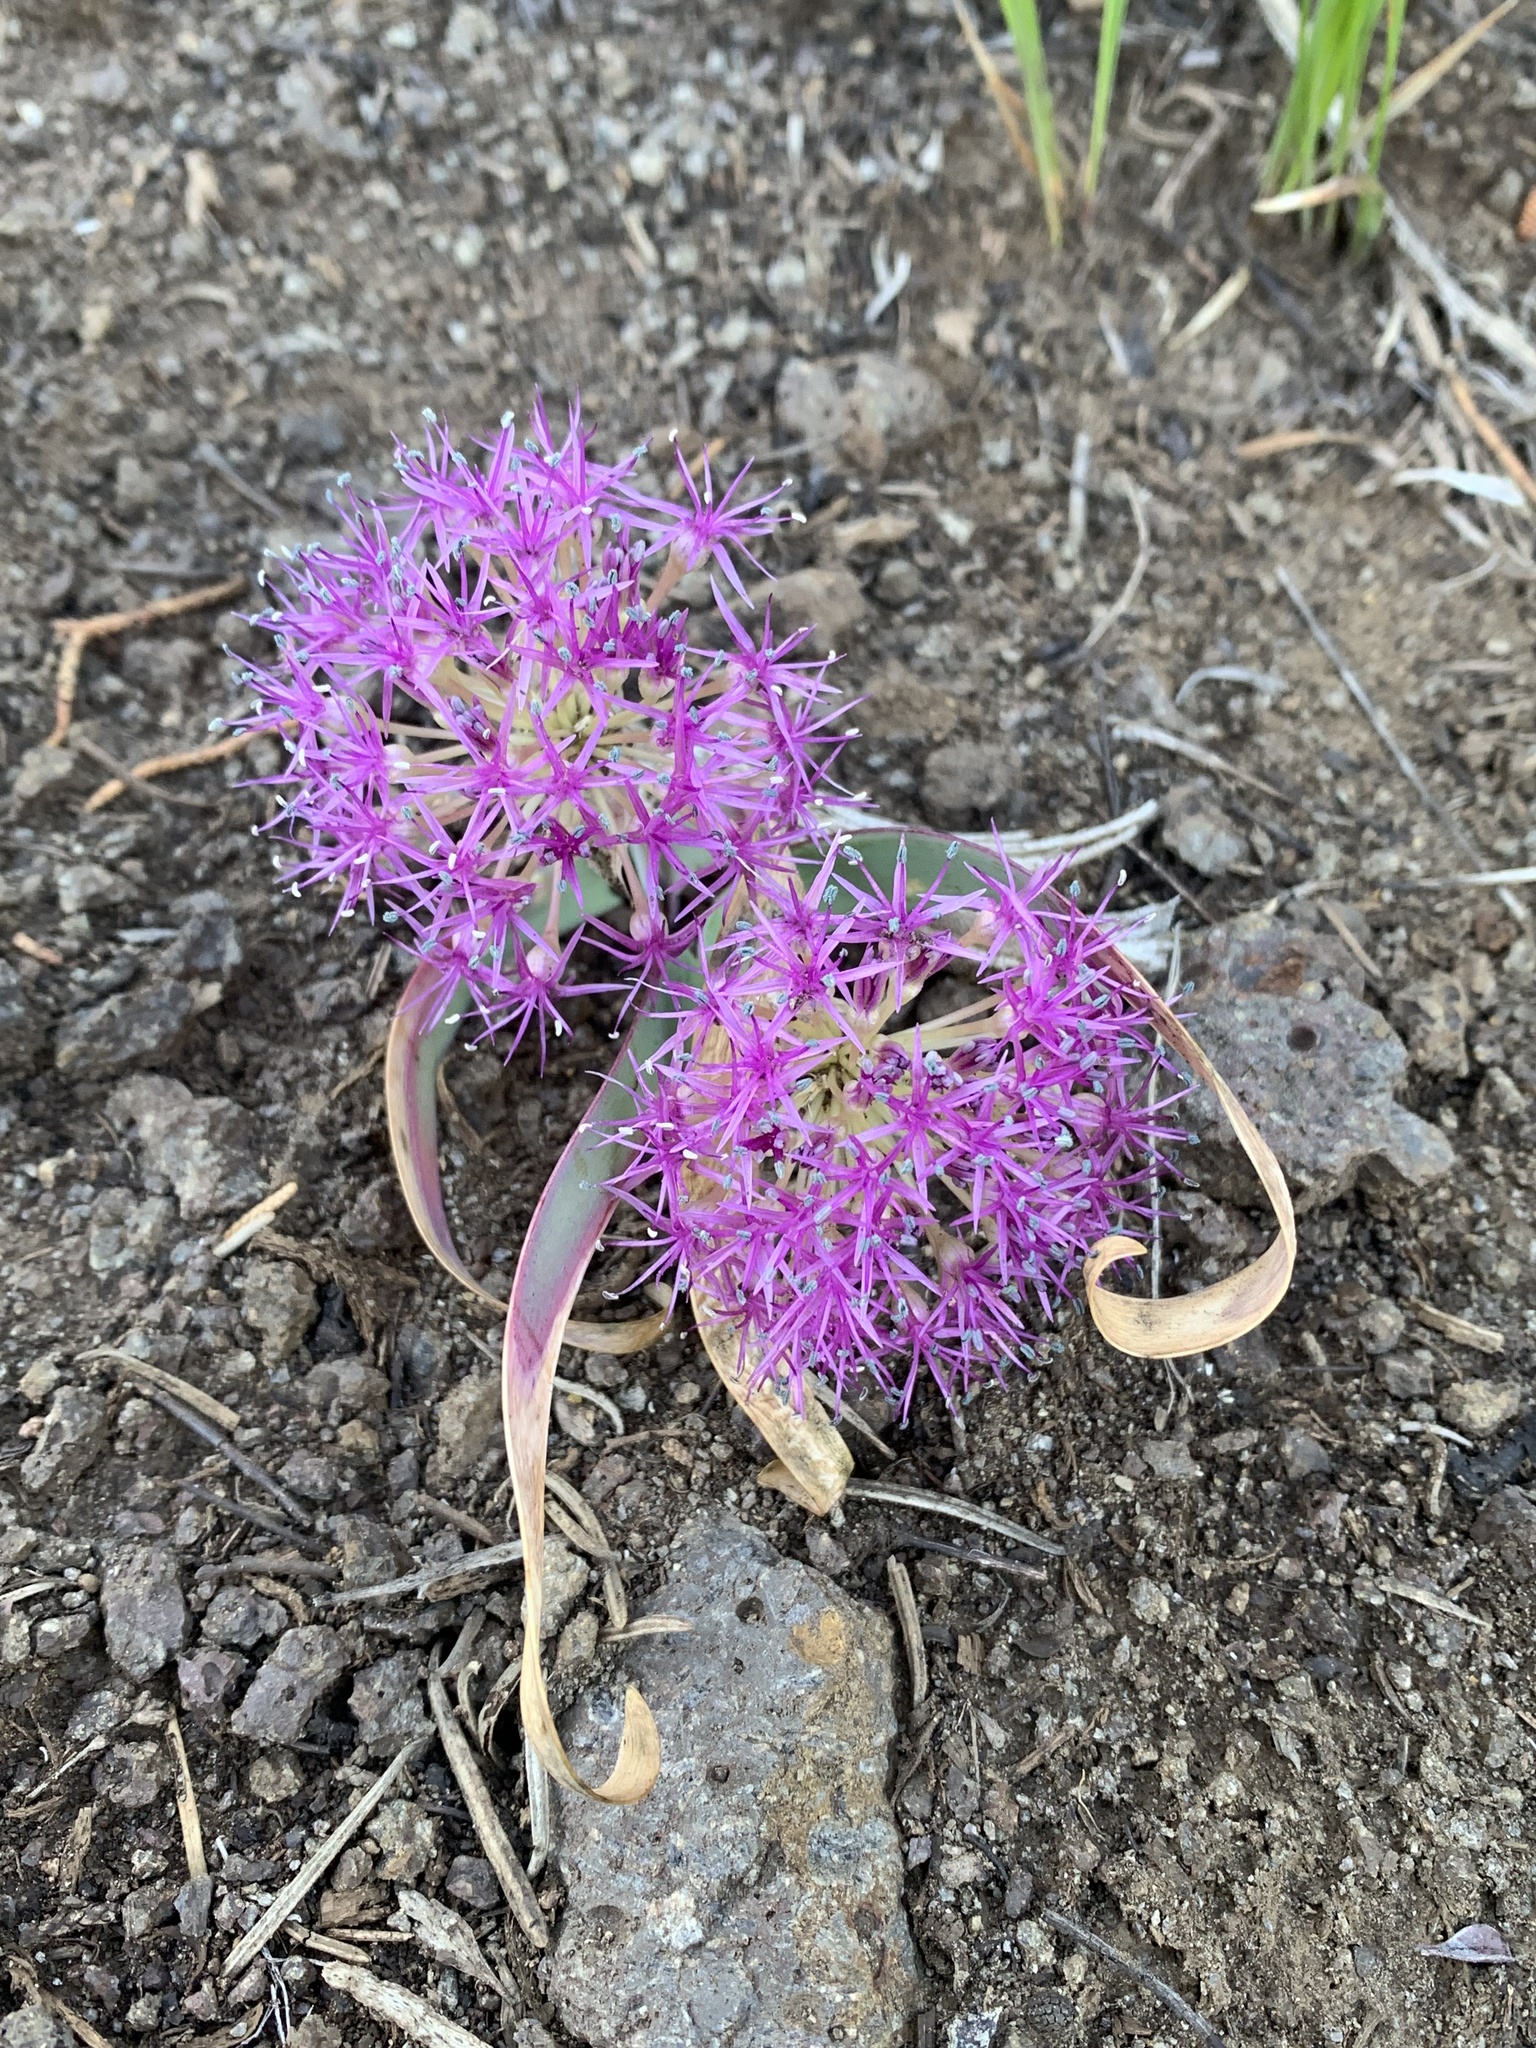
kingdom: Plantae
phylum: Tracheophyta
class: Liliopsida
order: Asparagales
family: Amaryllidaceae
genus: Allium
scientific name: Allium platycaule
